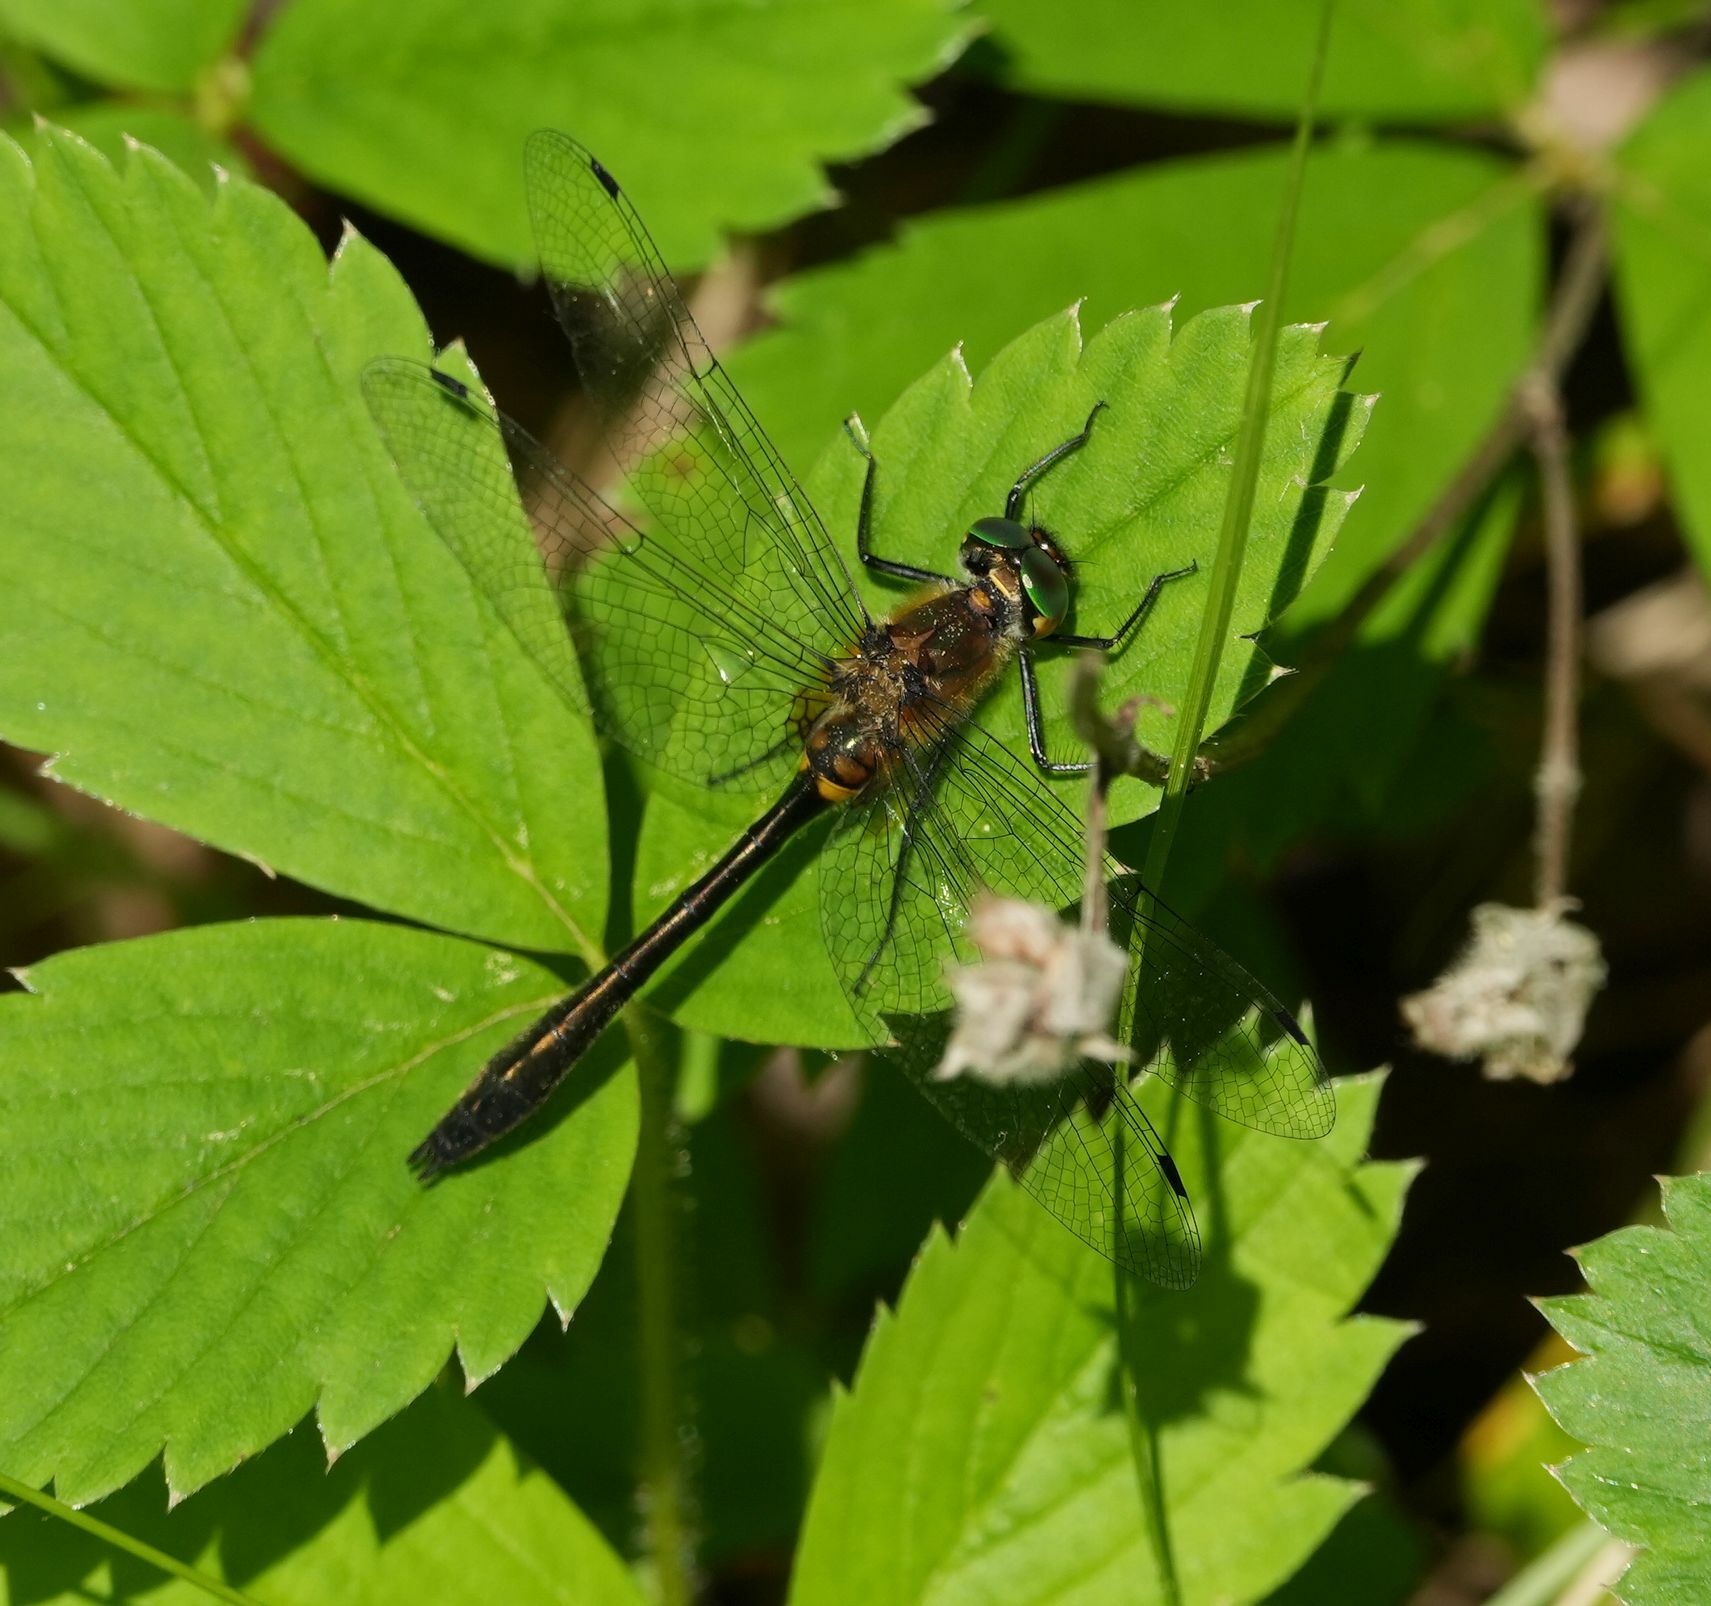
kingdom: Animalia
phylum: Arthropoda
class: Insecta
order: Odonata
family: Corduliidae
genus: Dorocordulia
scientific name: Dorocordulia libera
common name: Racket-tailed emerald
